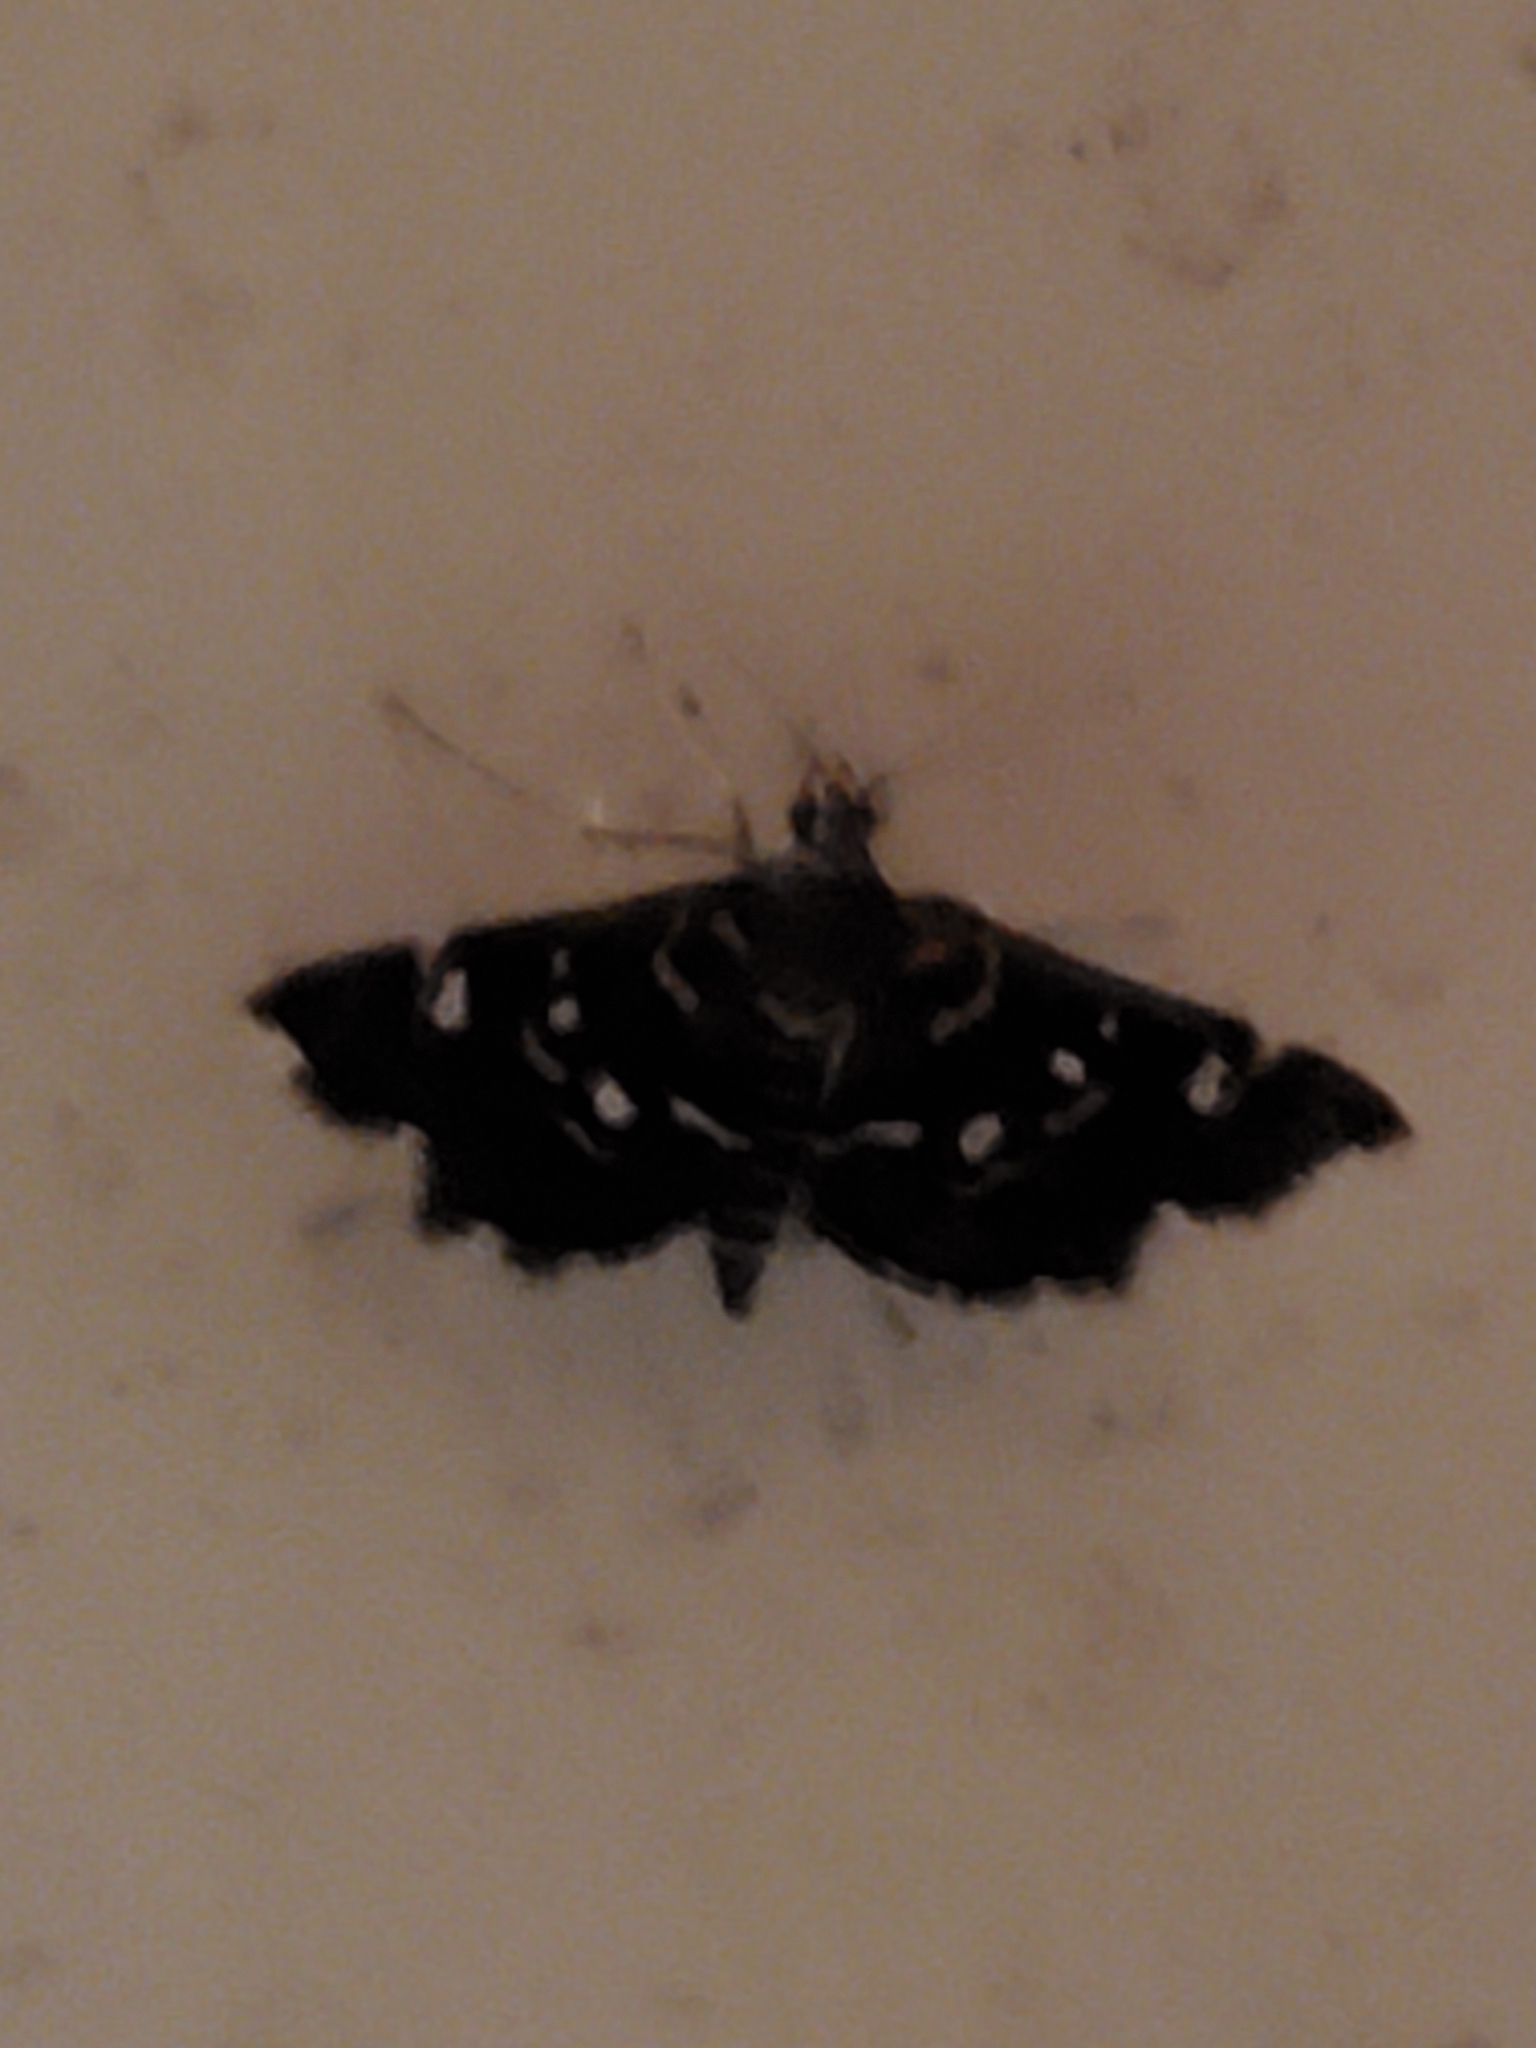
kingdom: Animalia
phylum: Arthropoda
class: Insecta
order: Lepidoptera
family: Crambidae
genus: Diathrausta
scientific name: Diathrausta harlequinalis
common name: Harlequin webworm moth
